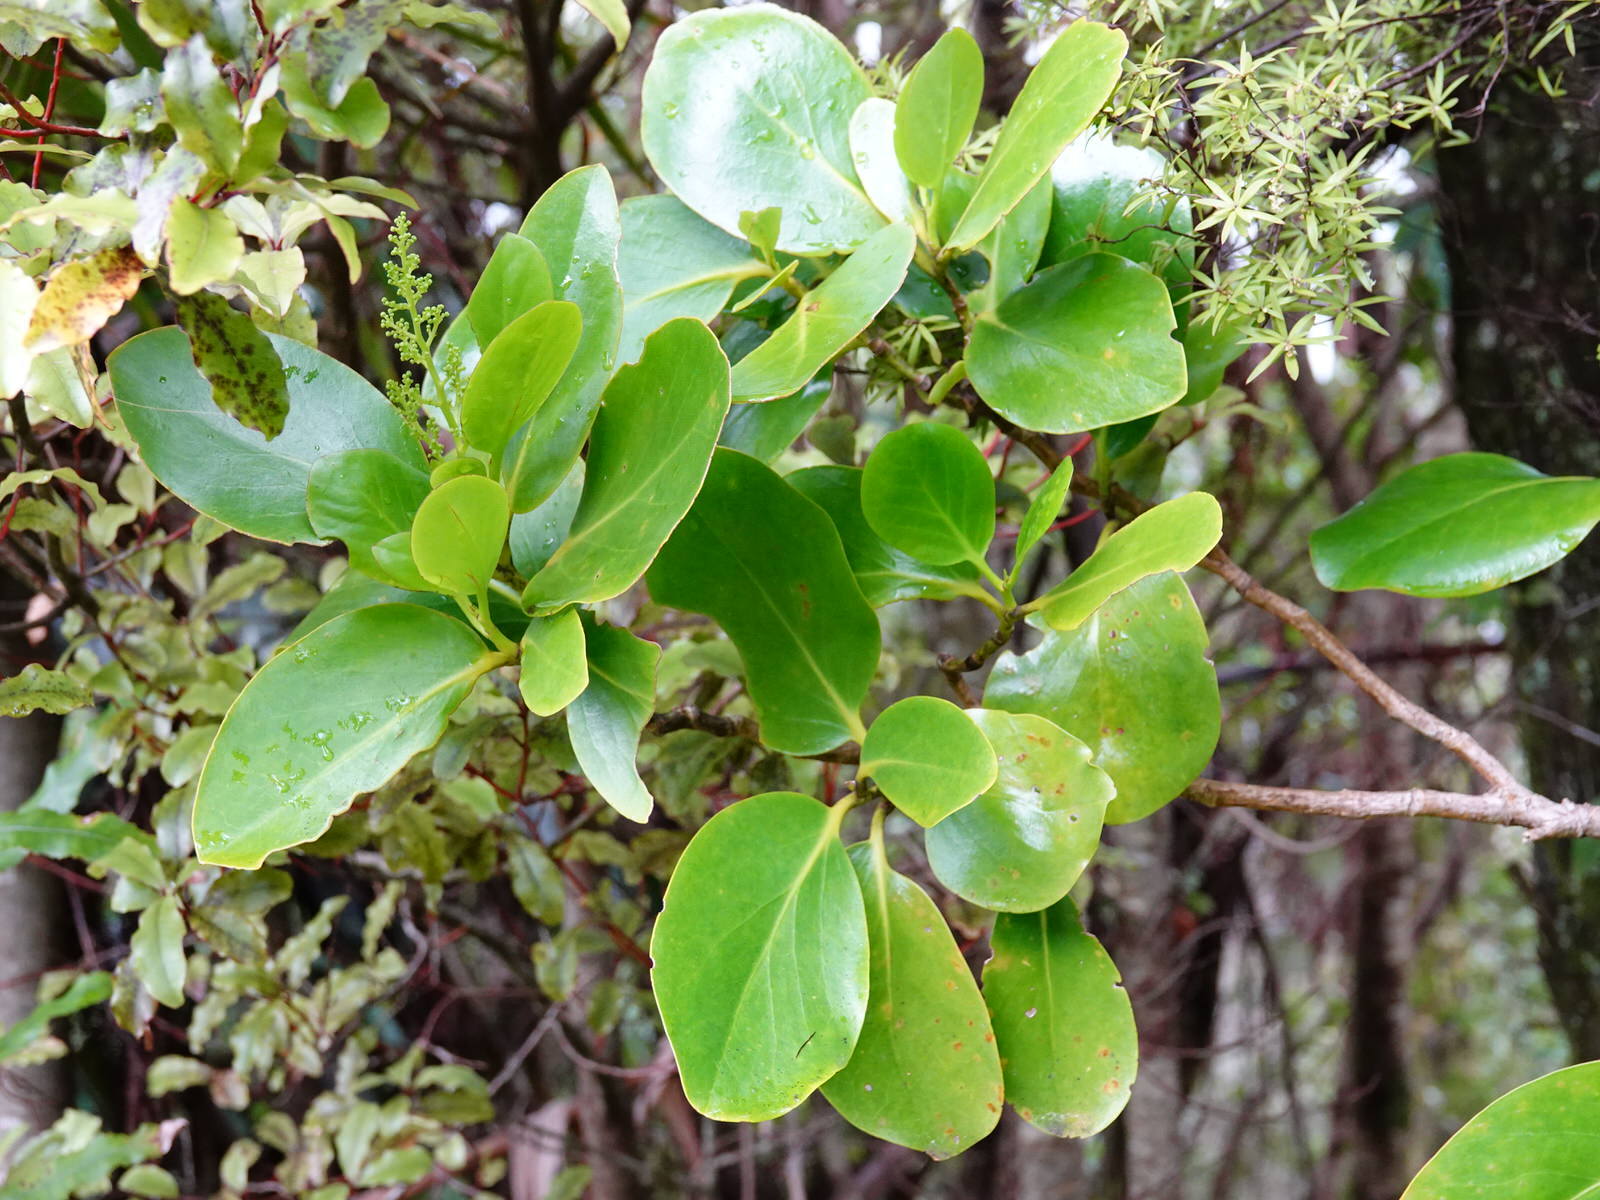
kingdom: Plantae
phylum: Tracheophyta
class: Magnoliopsida
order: Apiales
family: Griseliniaceae
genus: Griselinia
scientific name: Griselinia lucida
